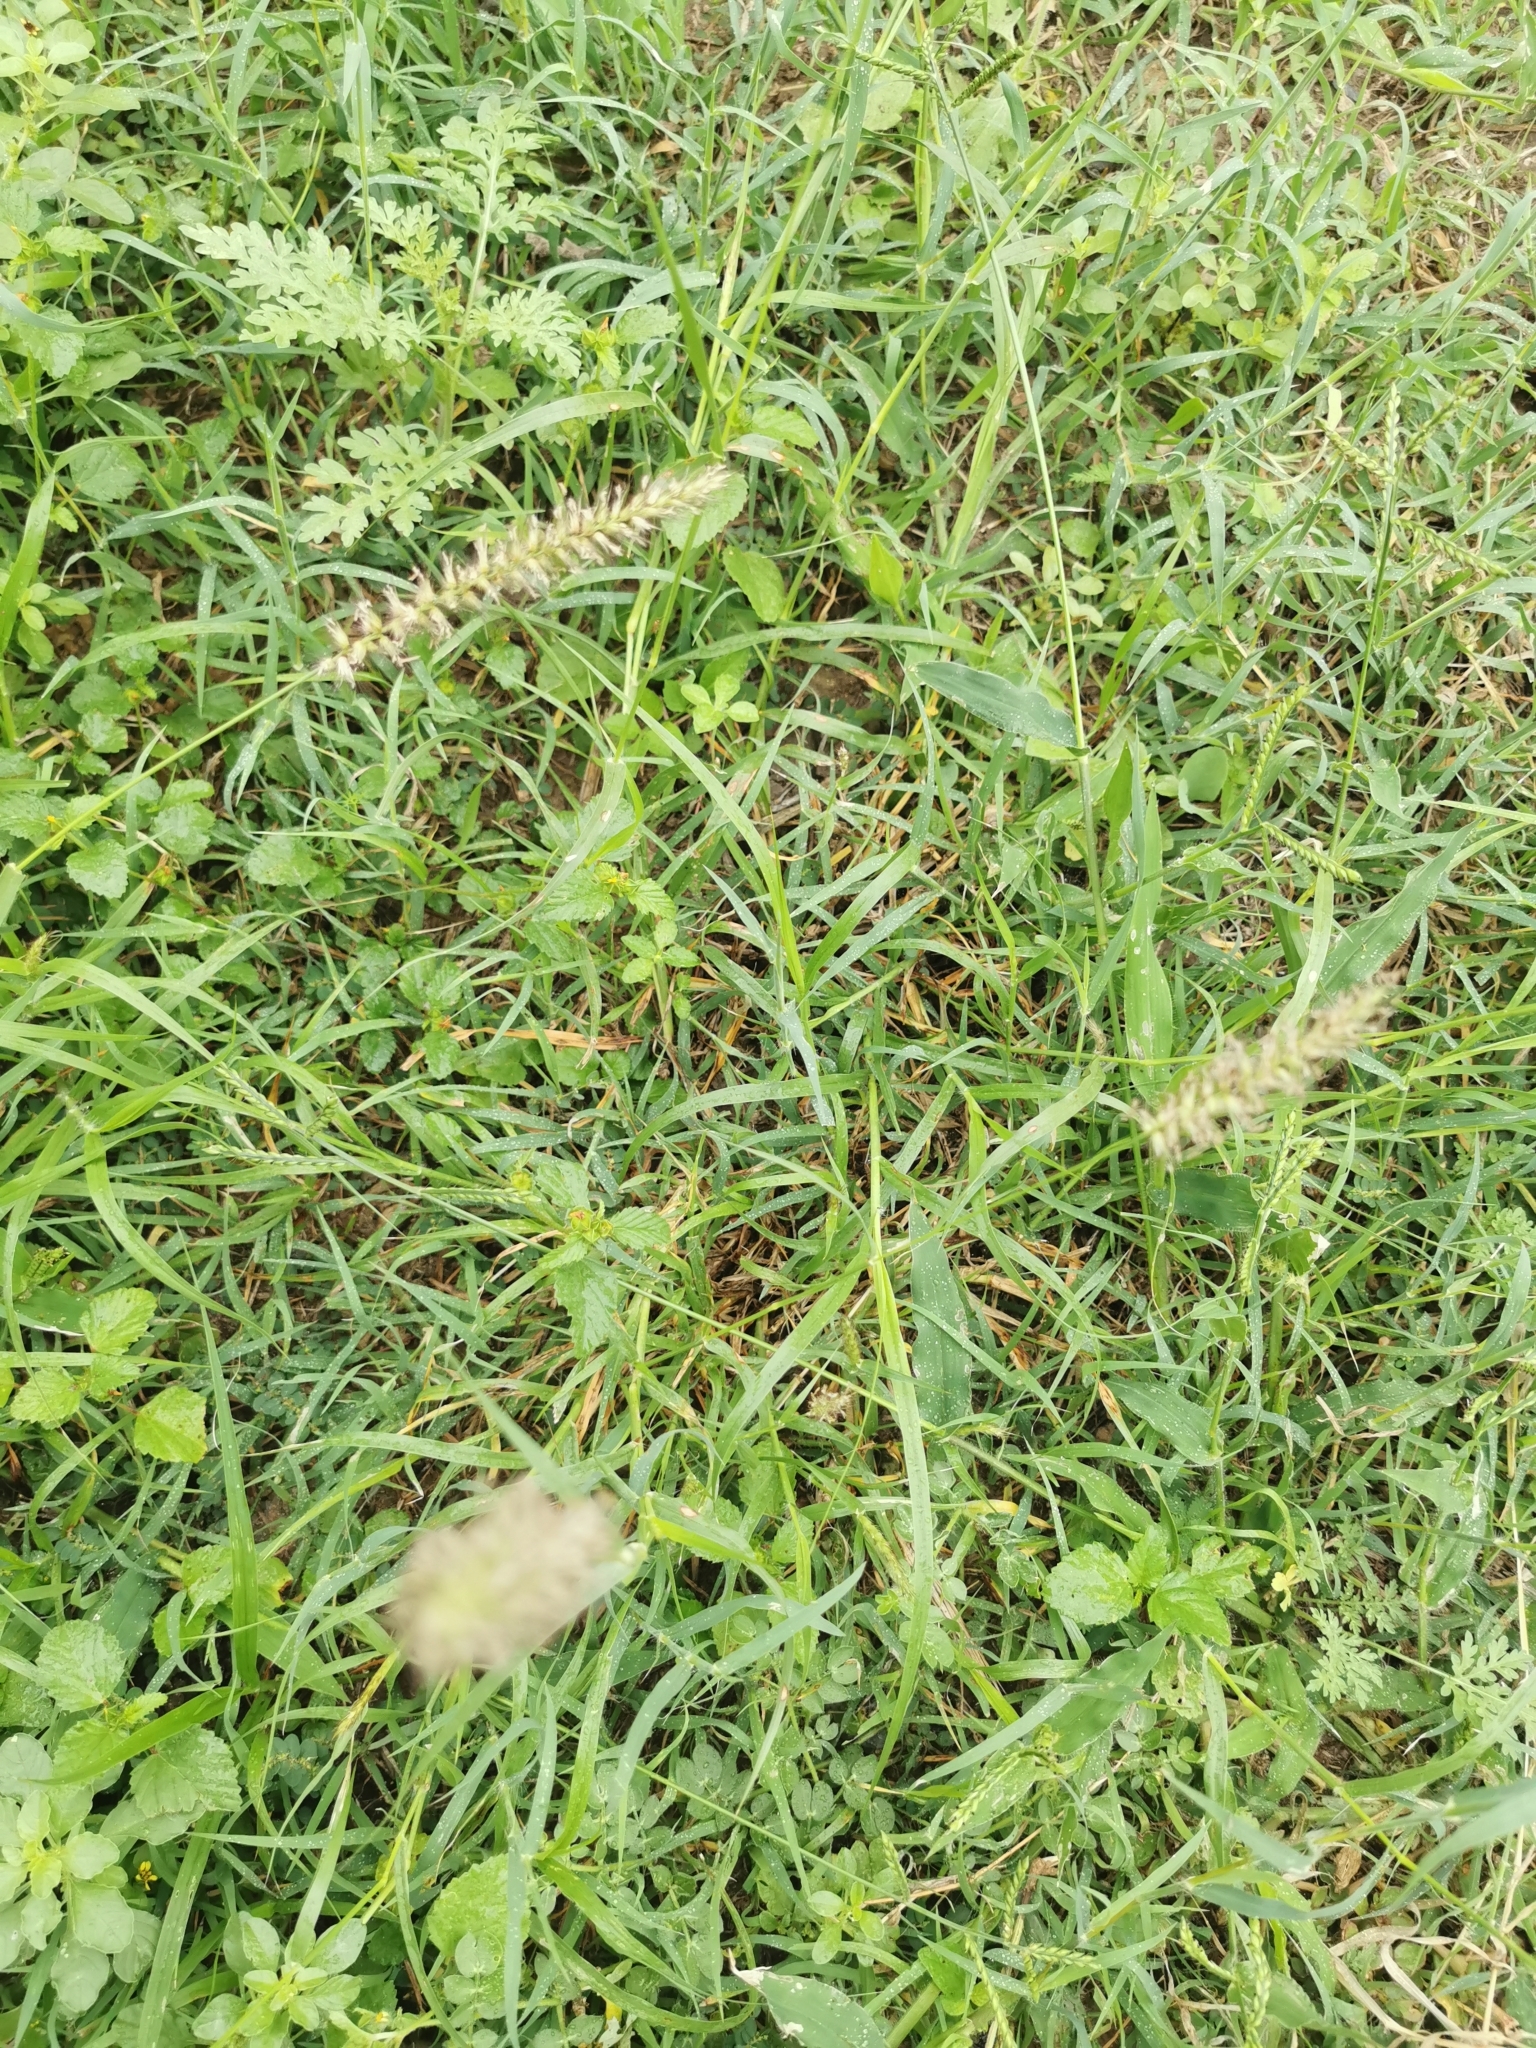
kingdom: Plantae
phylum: Tracheophyta
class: Liliopsida
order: Poales
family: Poaceae
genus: Cenchrus
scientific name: Cenchrus ciliaris
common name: Buffelgrass
